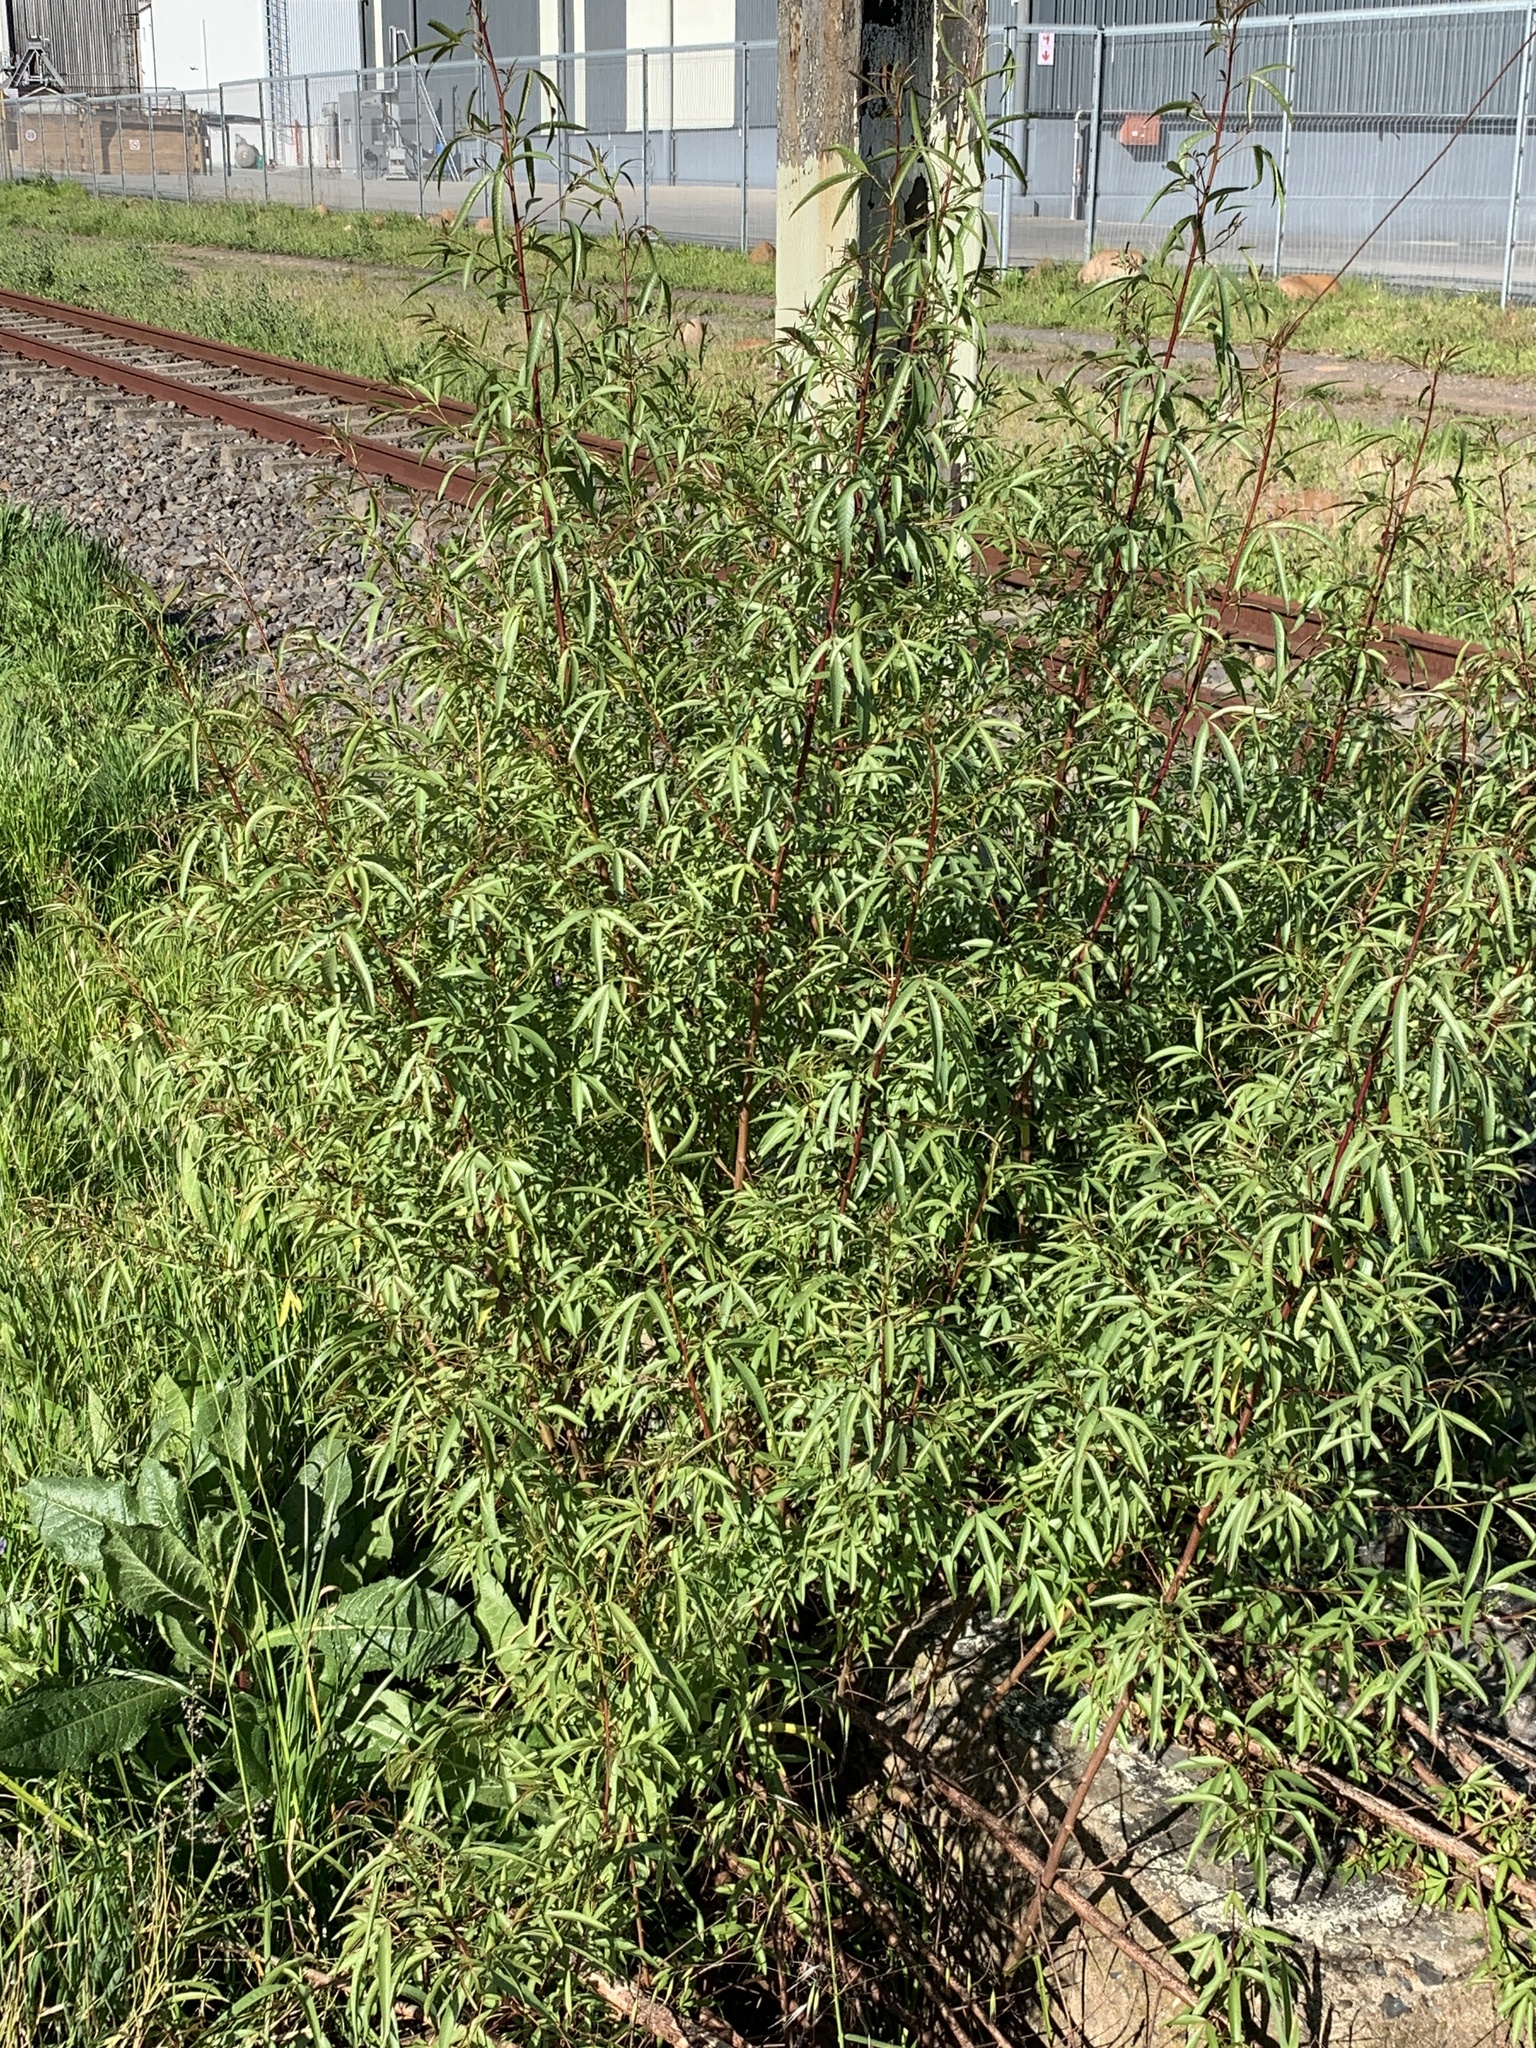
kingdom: Plantae
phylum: Tracheophyta
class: Magnoliopsida
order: Sapindales
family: Anacardiaceae
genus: Searsia
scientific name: Searsia pendulina
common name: White karee
